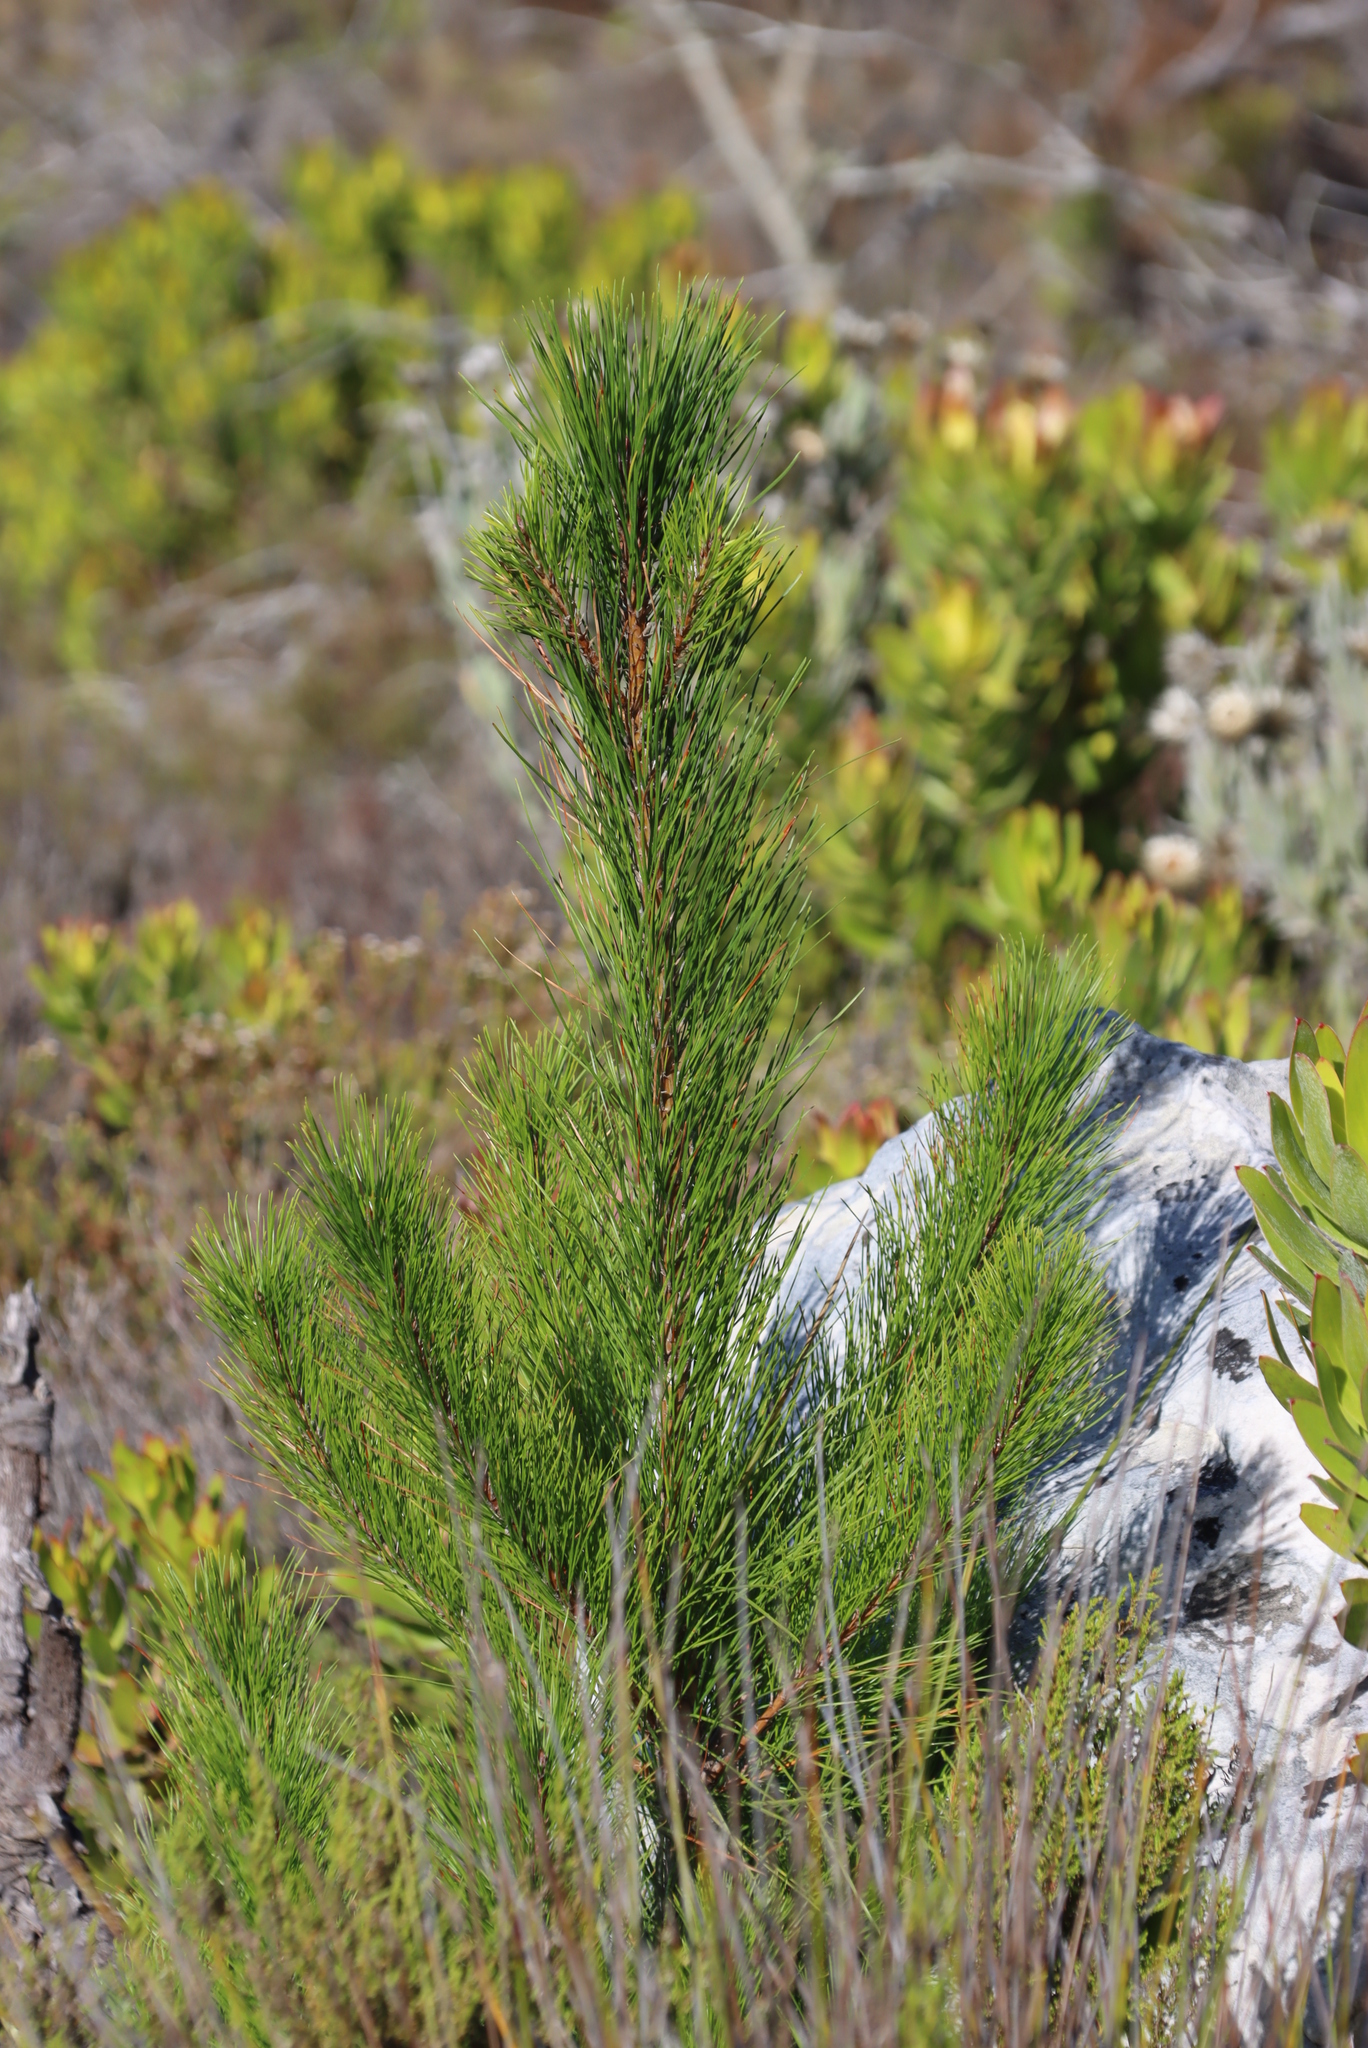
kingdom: Plantae
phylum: Tracheophyta
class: Pinopsida
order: Pinales
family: Pinaceae
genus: Pinus
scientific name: Pinus radiata
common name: Monterey pine
